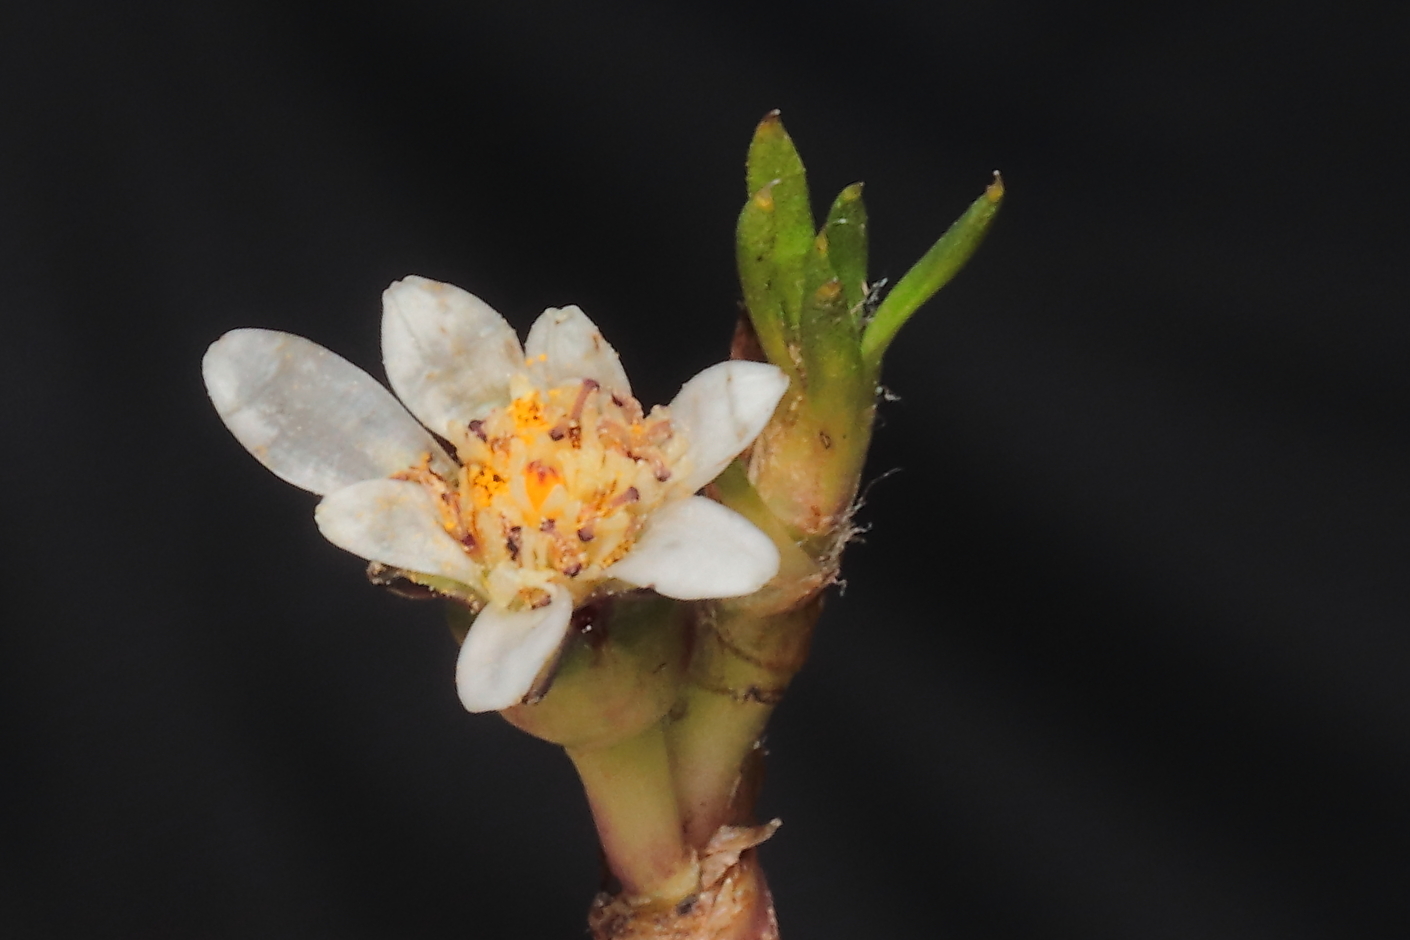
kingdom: Plantae
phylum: Tracheophyta
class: Magnoliopsida
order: Asterales
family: Asteraceae
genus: Rockhausenia
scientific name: Rockhausenia microphylla
